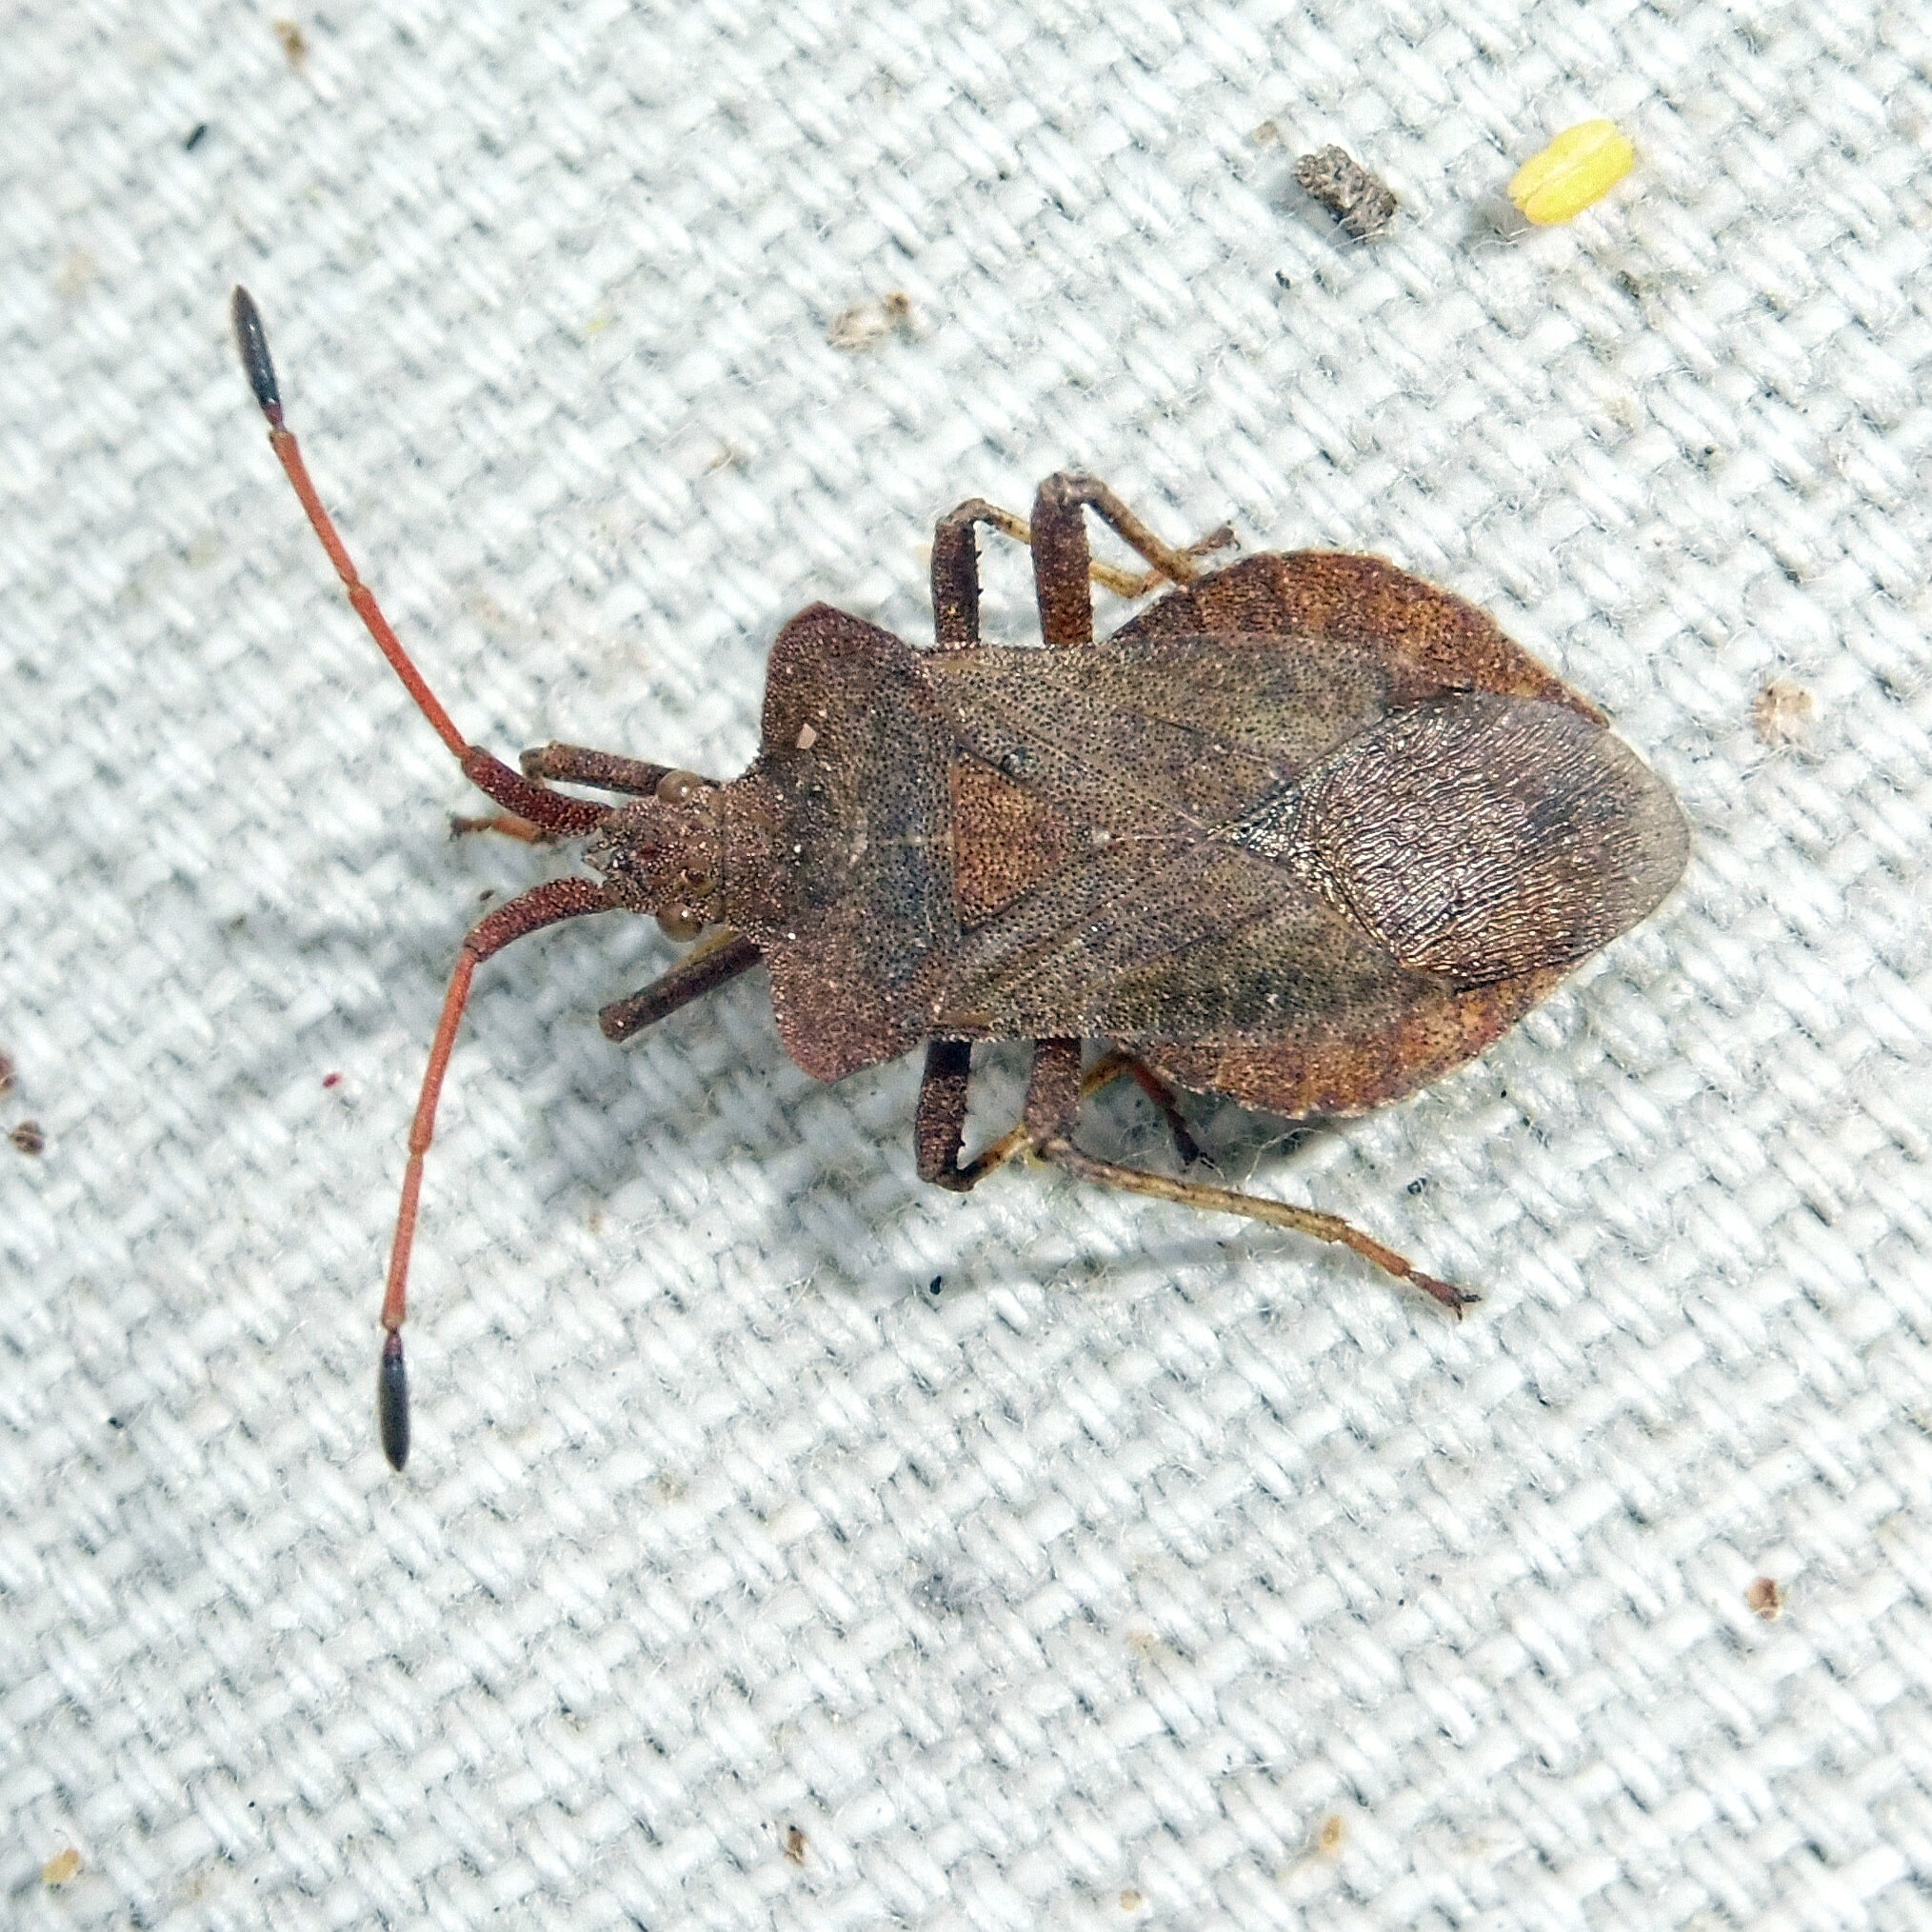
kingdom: Animalia
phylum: Arthropoda
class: Insecta
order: Hemiptera
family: Coreidae
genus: Coreus
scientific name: Coreus marginatus
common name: Dock bug
